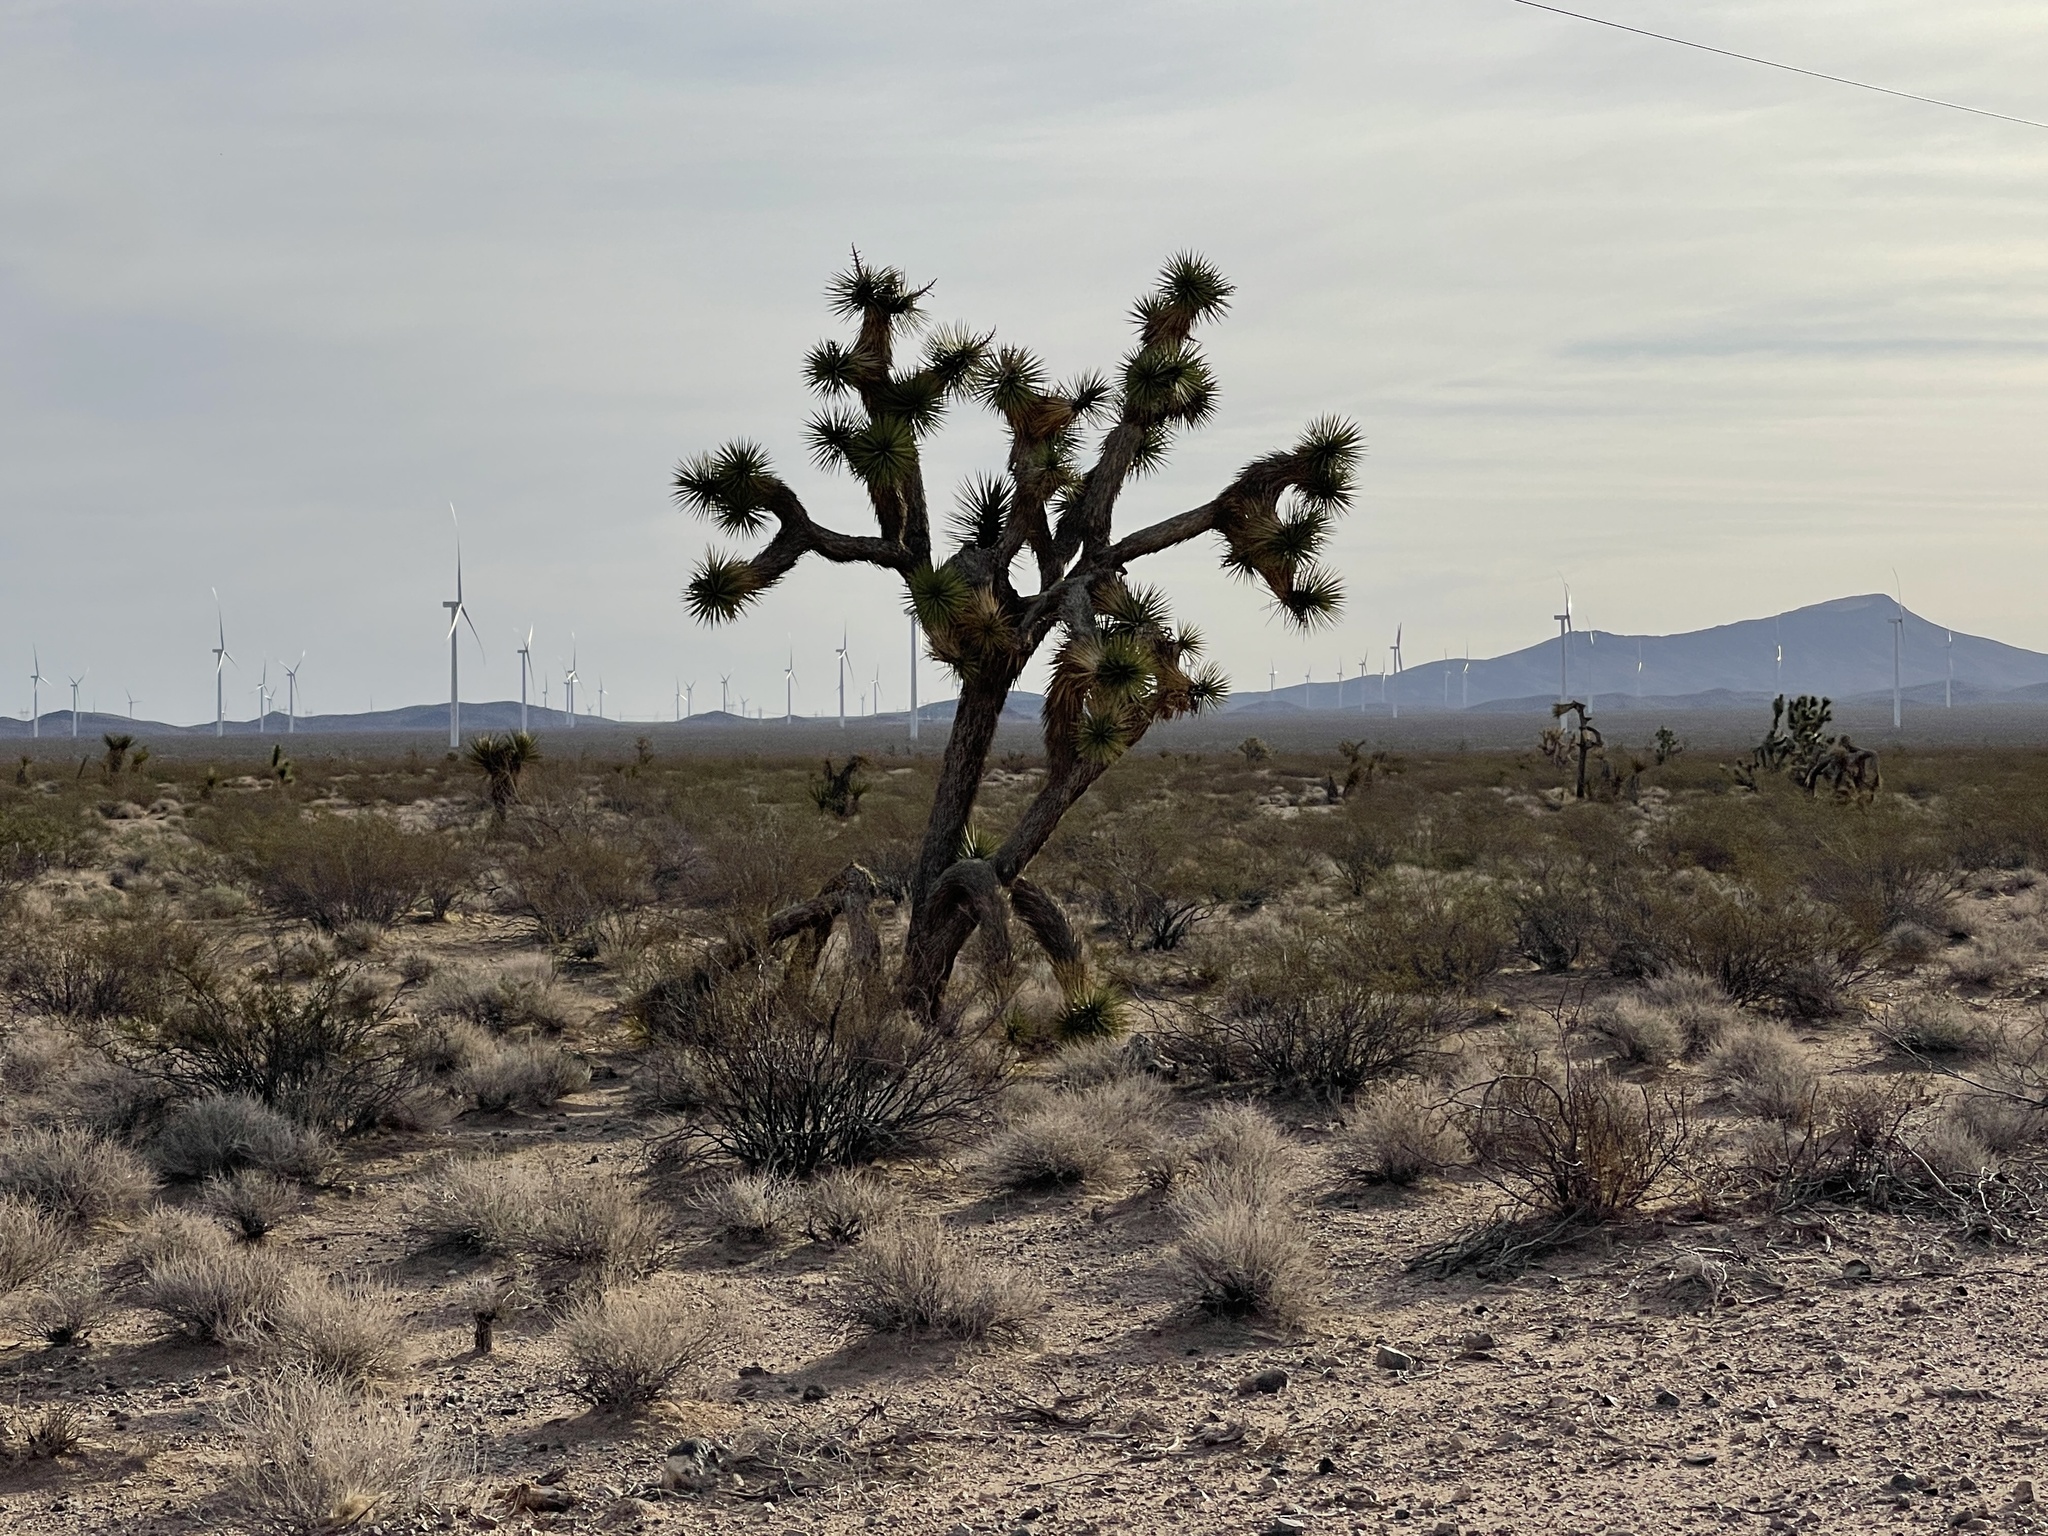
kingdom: Plantae
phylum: Tracheophyta
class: Liliopsida
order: Asparagales
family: Asparagaceae
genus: Yucca
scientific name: Yucca brevifolia
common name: Joshua tree
